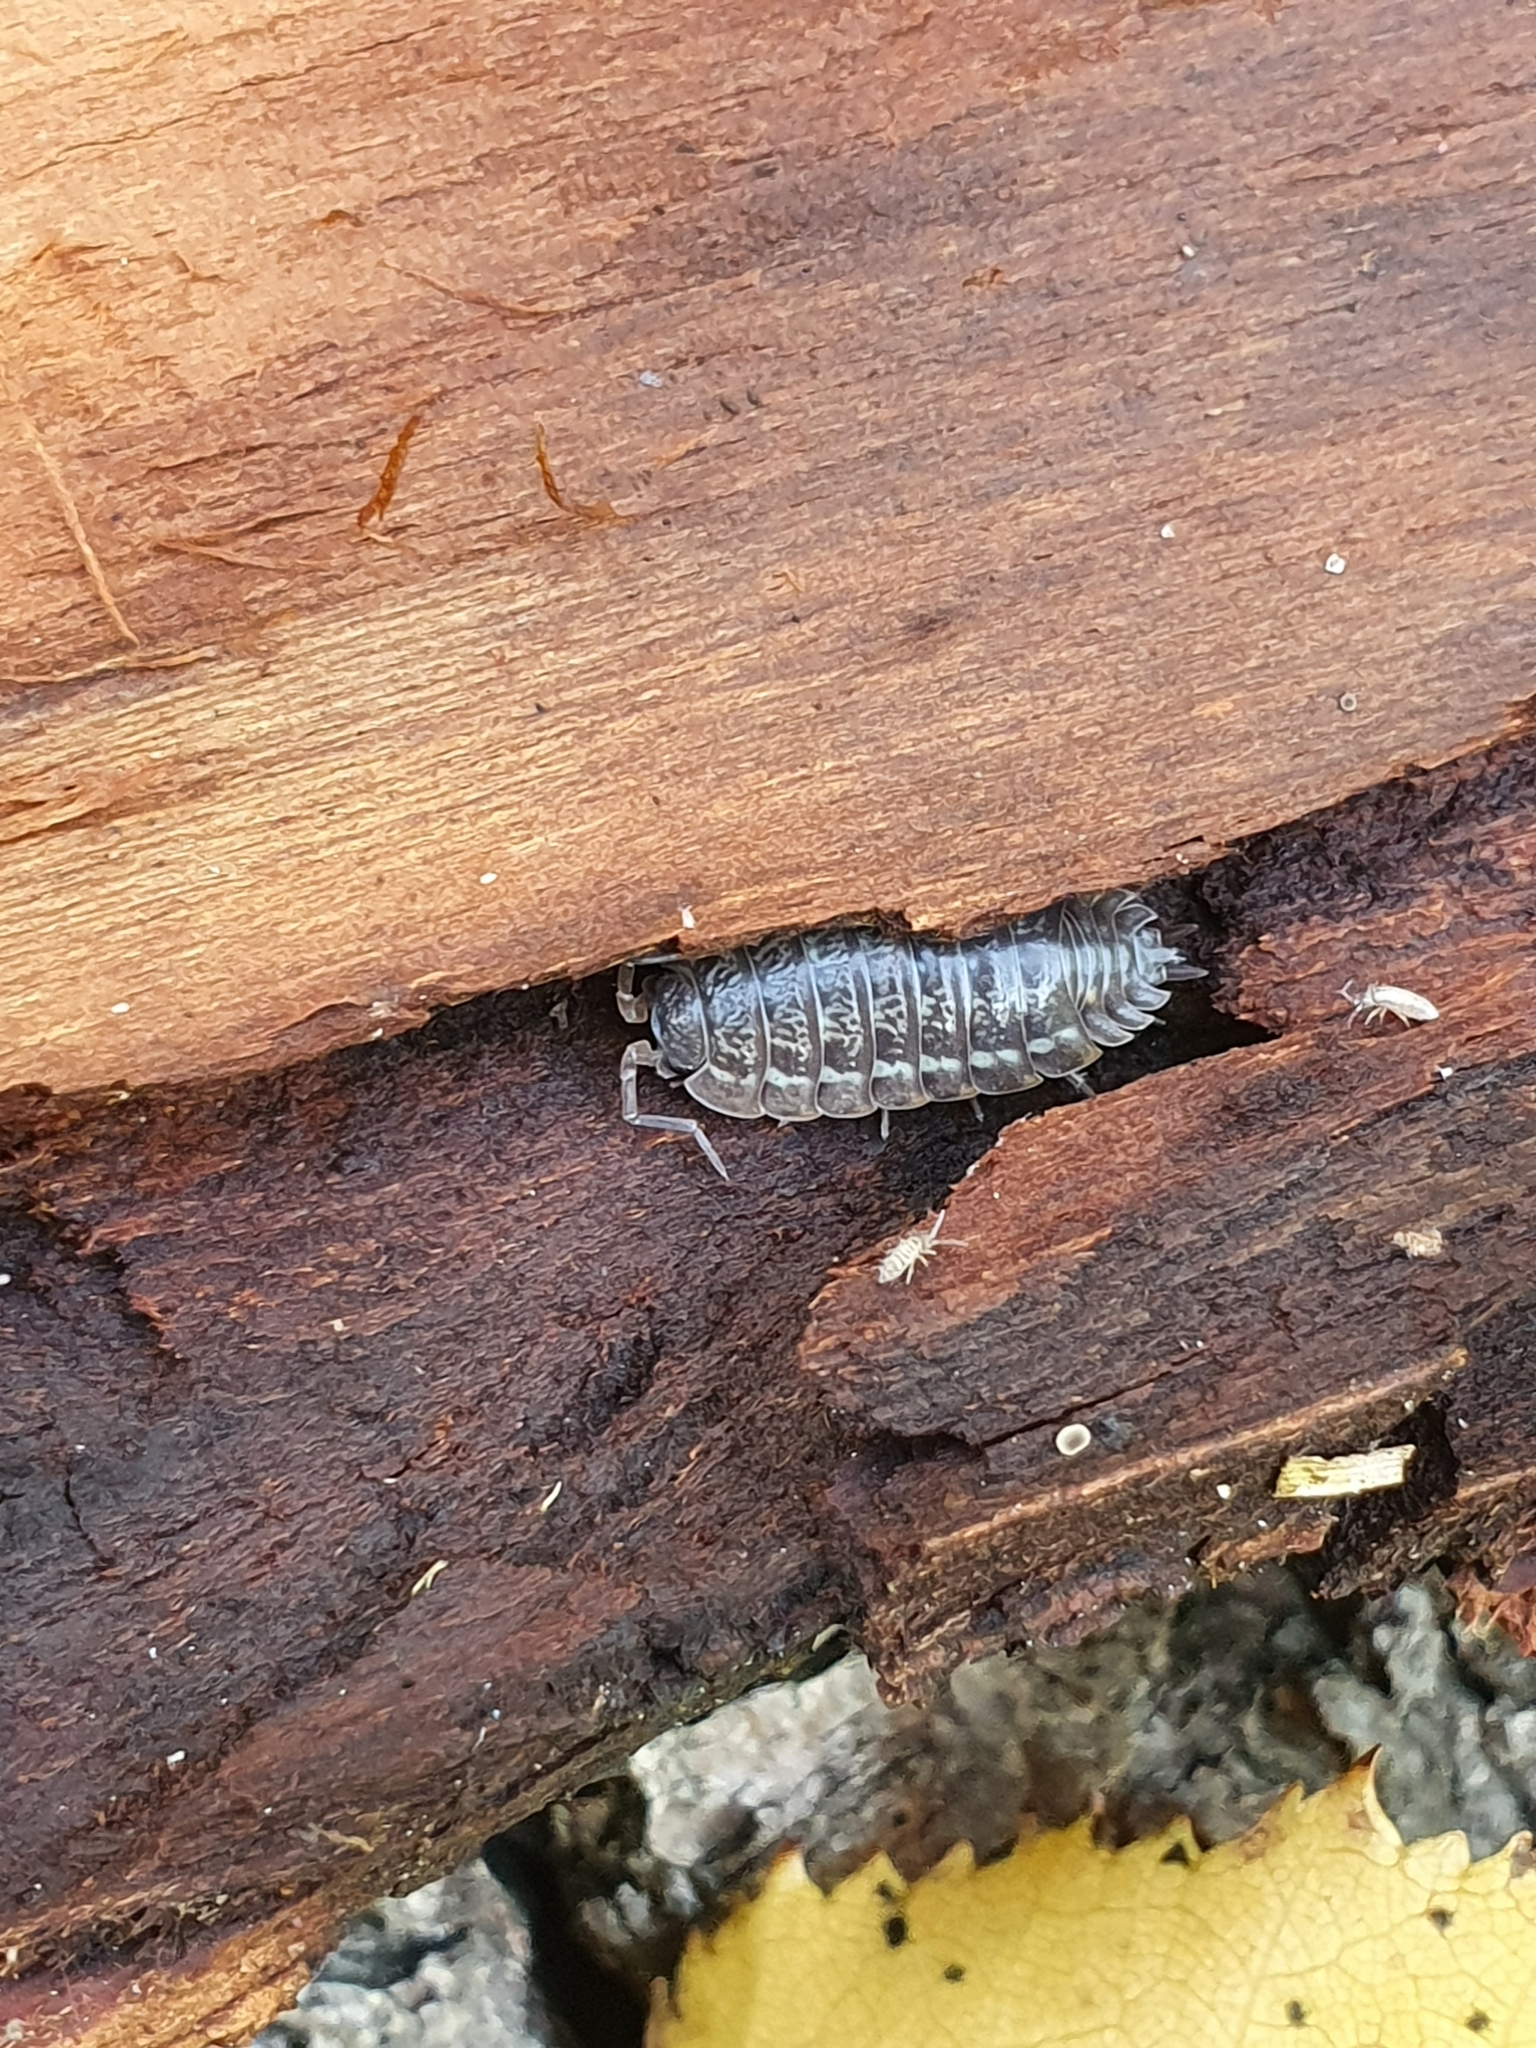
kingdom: Animalia
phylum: Arthropoda
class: Malacostraca
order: Isopoda
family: Trachelipodidae
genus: Trachelipus
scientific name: Trachelipus rathkii
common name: Isopod
